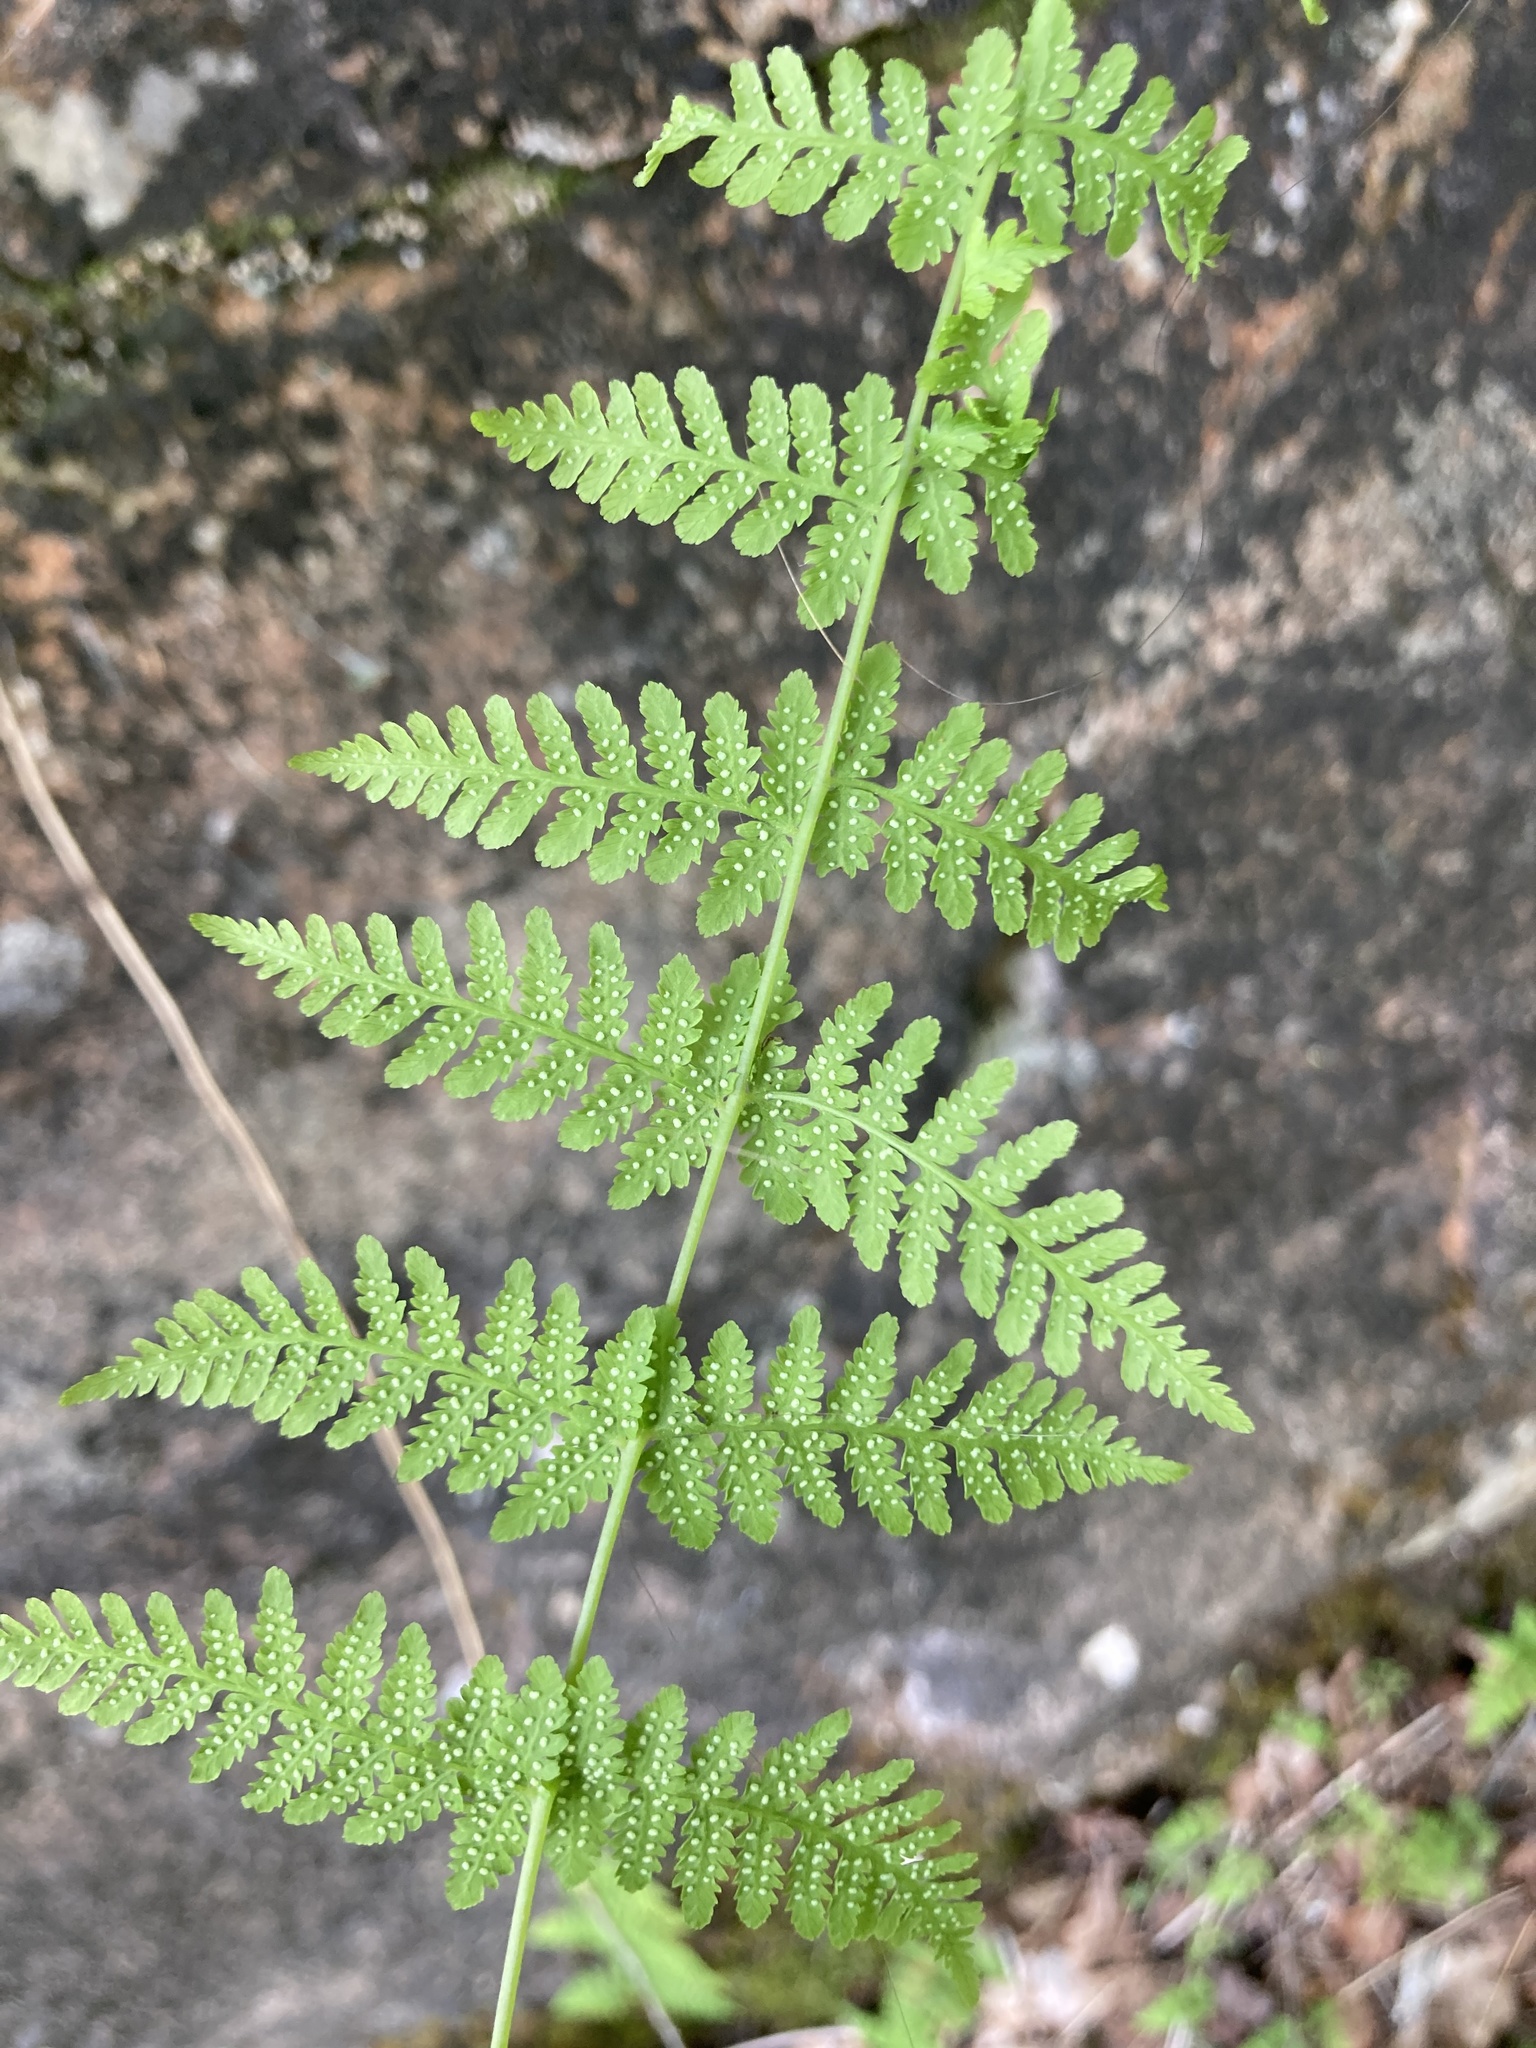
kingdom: Plantae
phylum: Tracheophyta
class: Polypodiopsida
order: Polypodiales
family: Cystopteridaceae
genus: Cystopteris
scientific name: Cystopteris bulbifera
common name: Bulblet bladder fern
